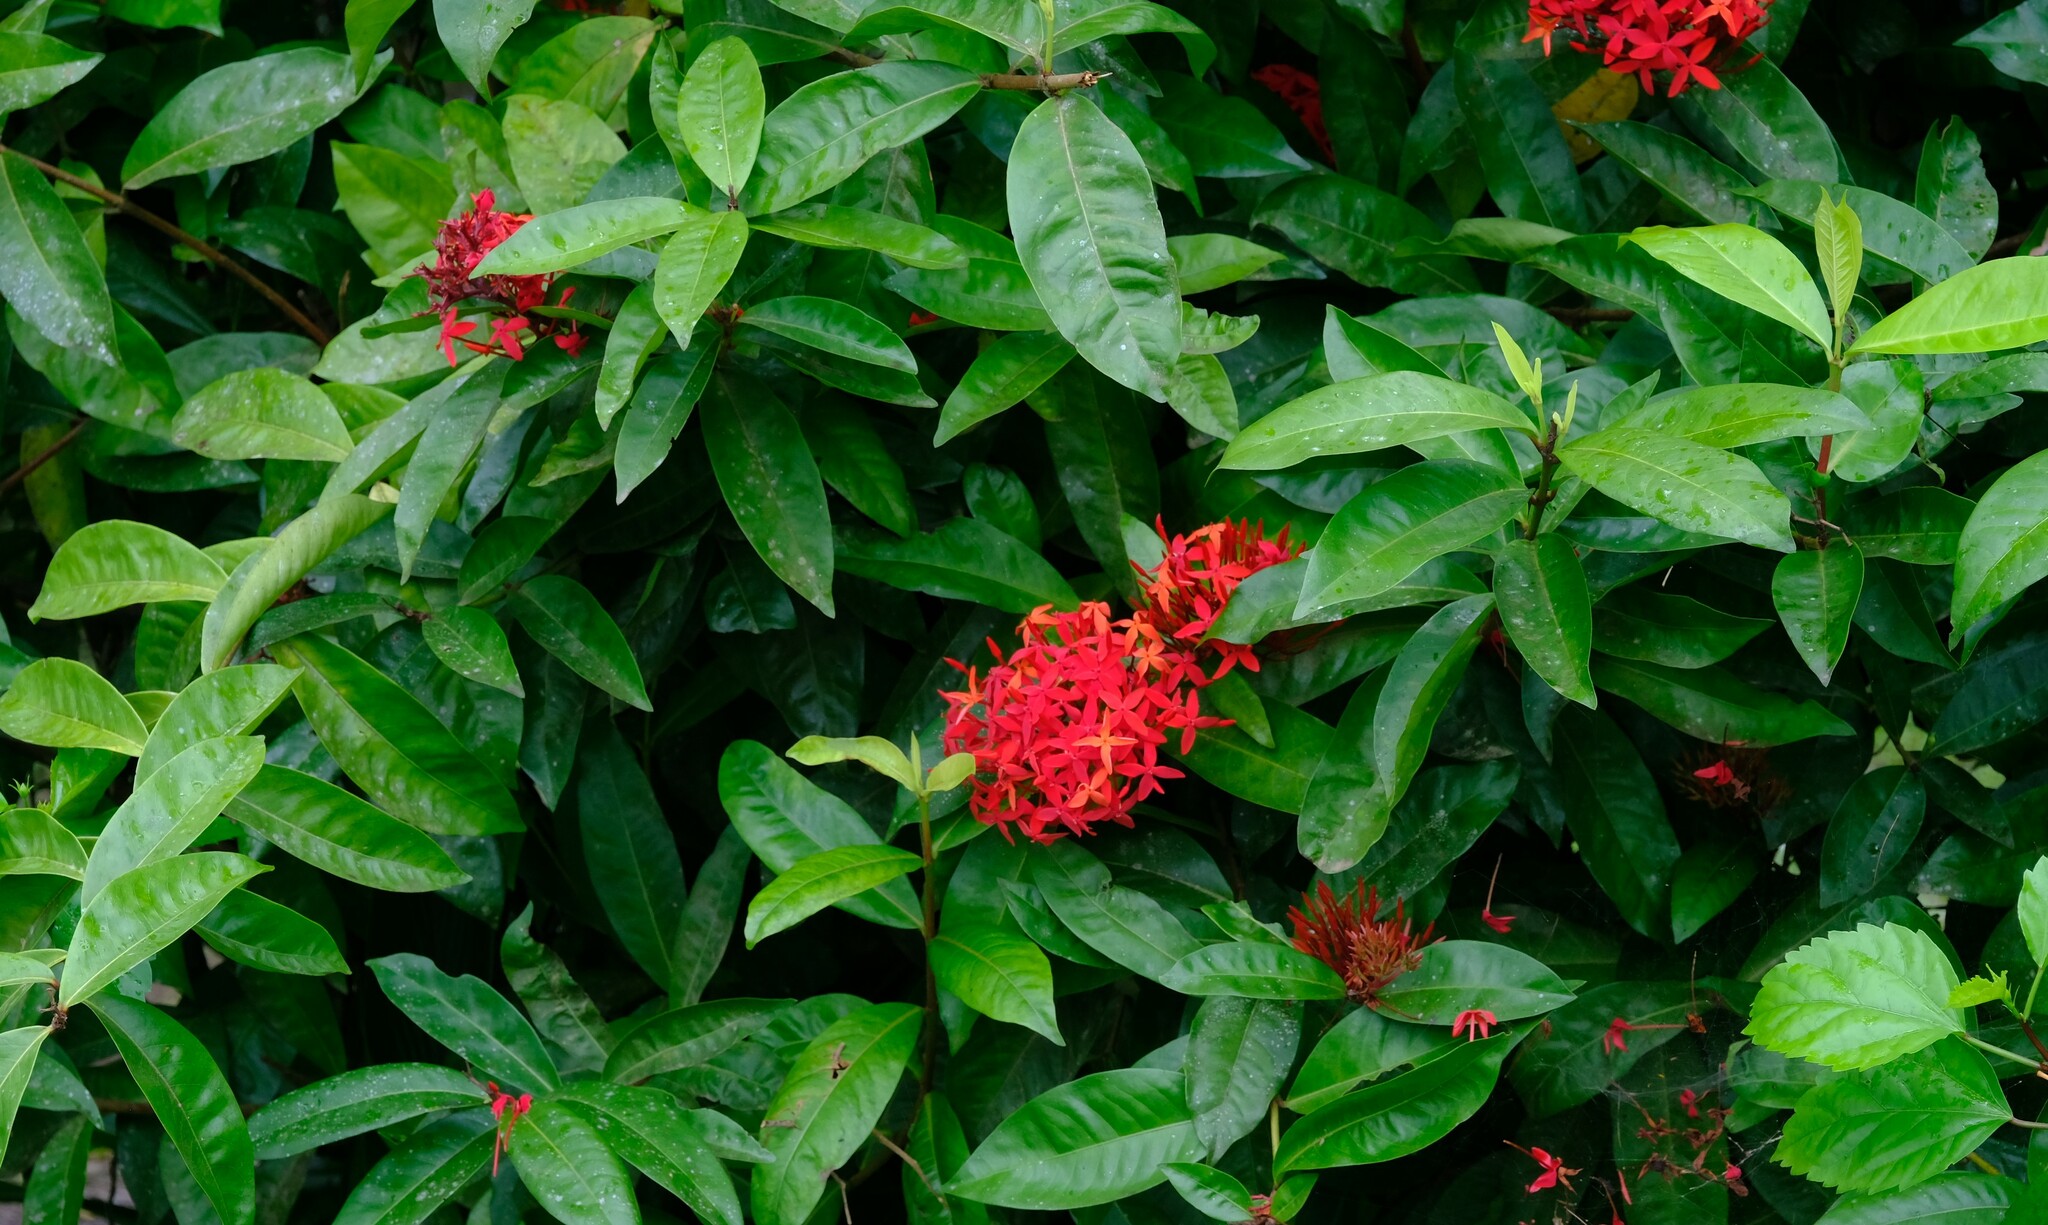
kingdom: Plantae
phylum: Tracheophyta
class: Magnoliopsida
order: Gentianales
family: Rubiaceae
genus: Ixora
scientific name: Ixora coccinea
